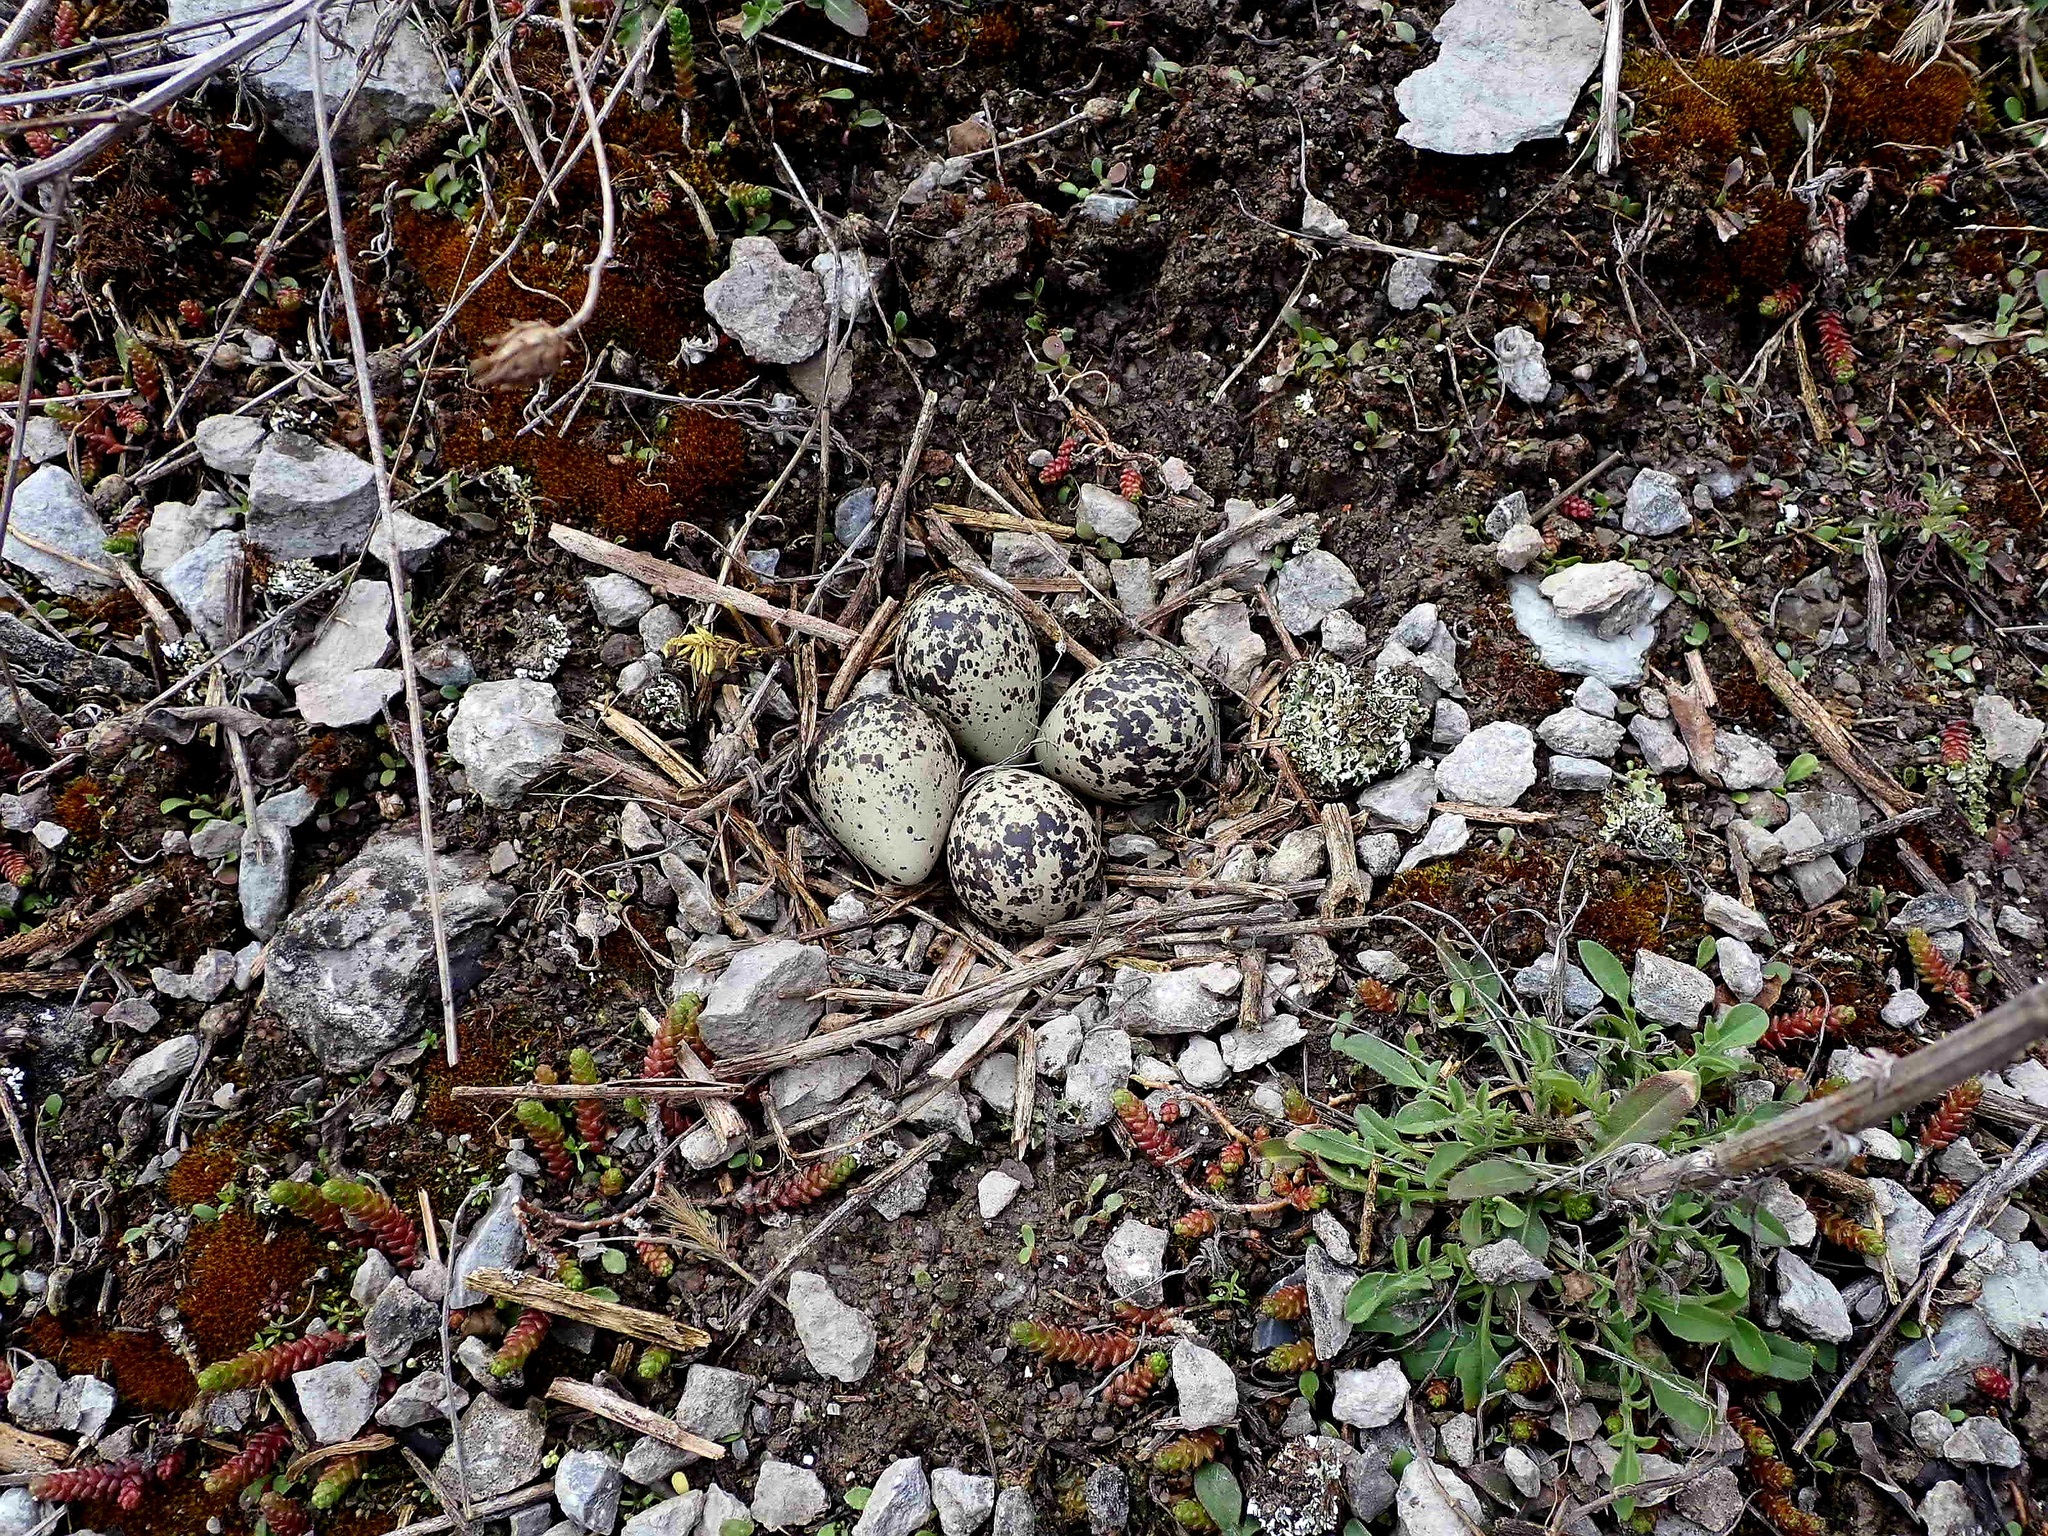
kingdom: Animalia
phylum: Chordata
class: Aves
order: Charadriiformes
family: Charadriidae
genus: Charadrius
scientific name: Charadrius vociferus
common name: Killdeer
